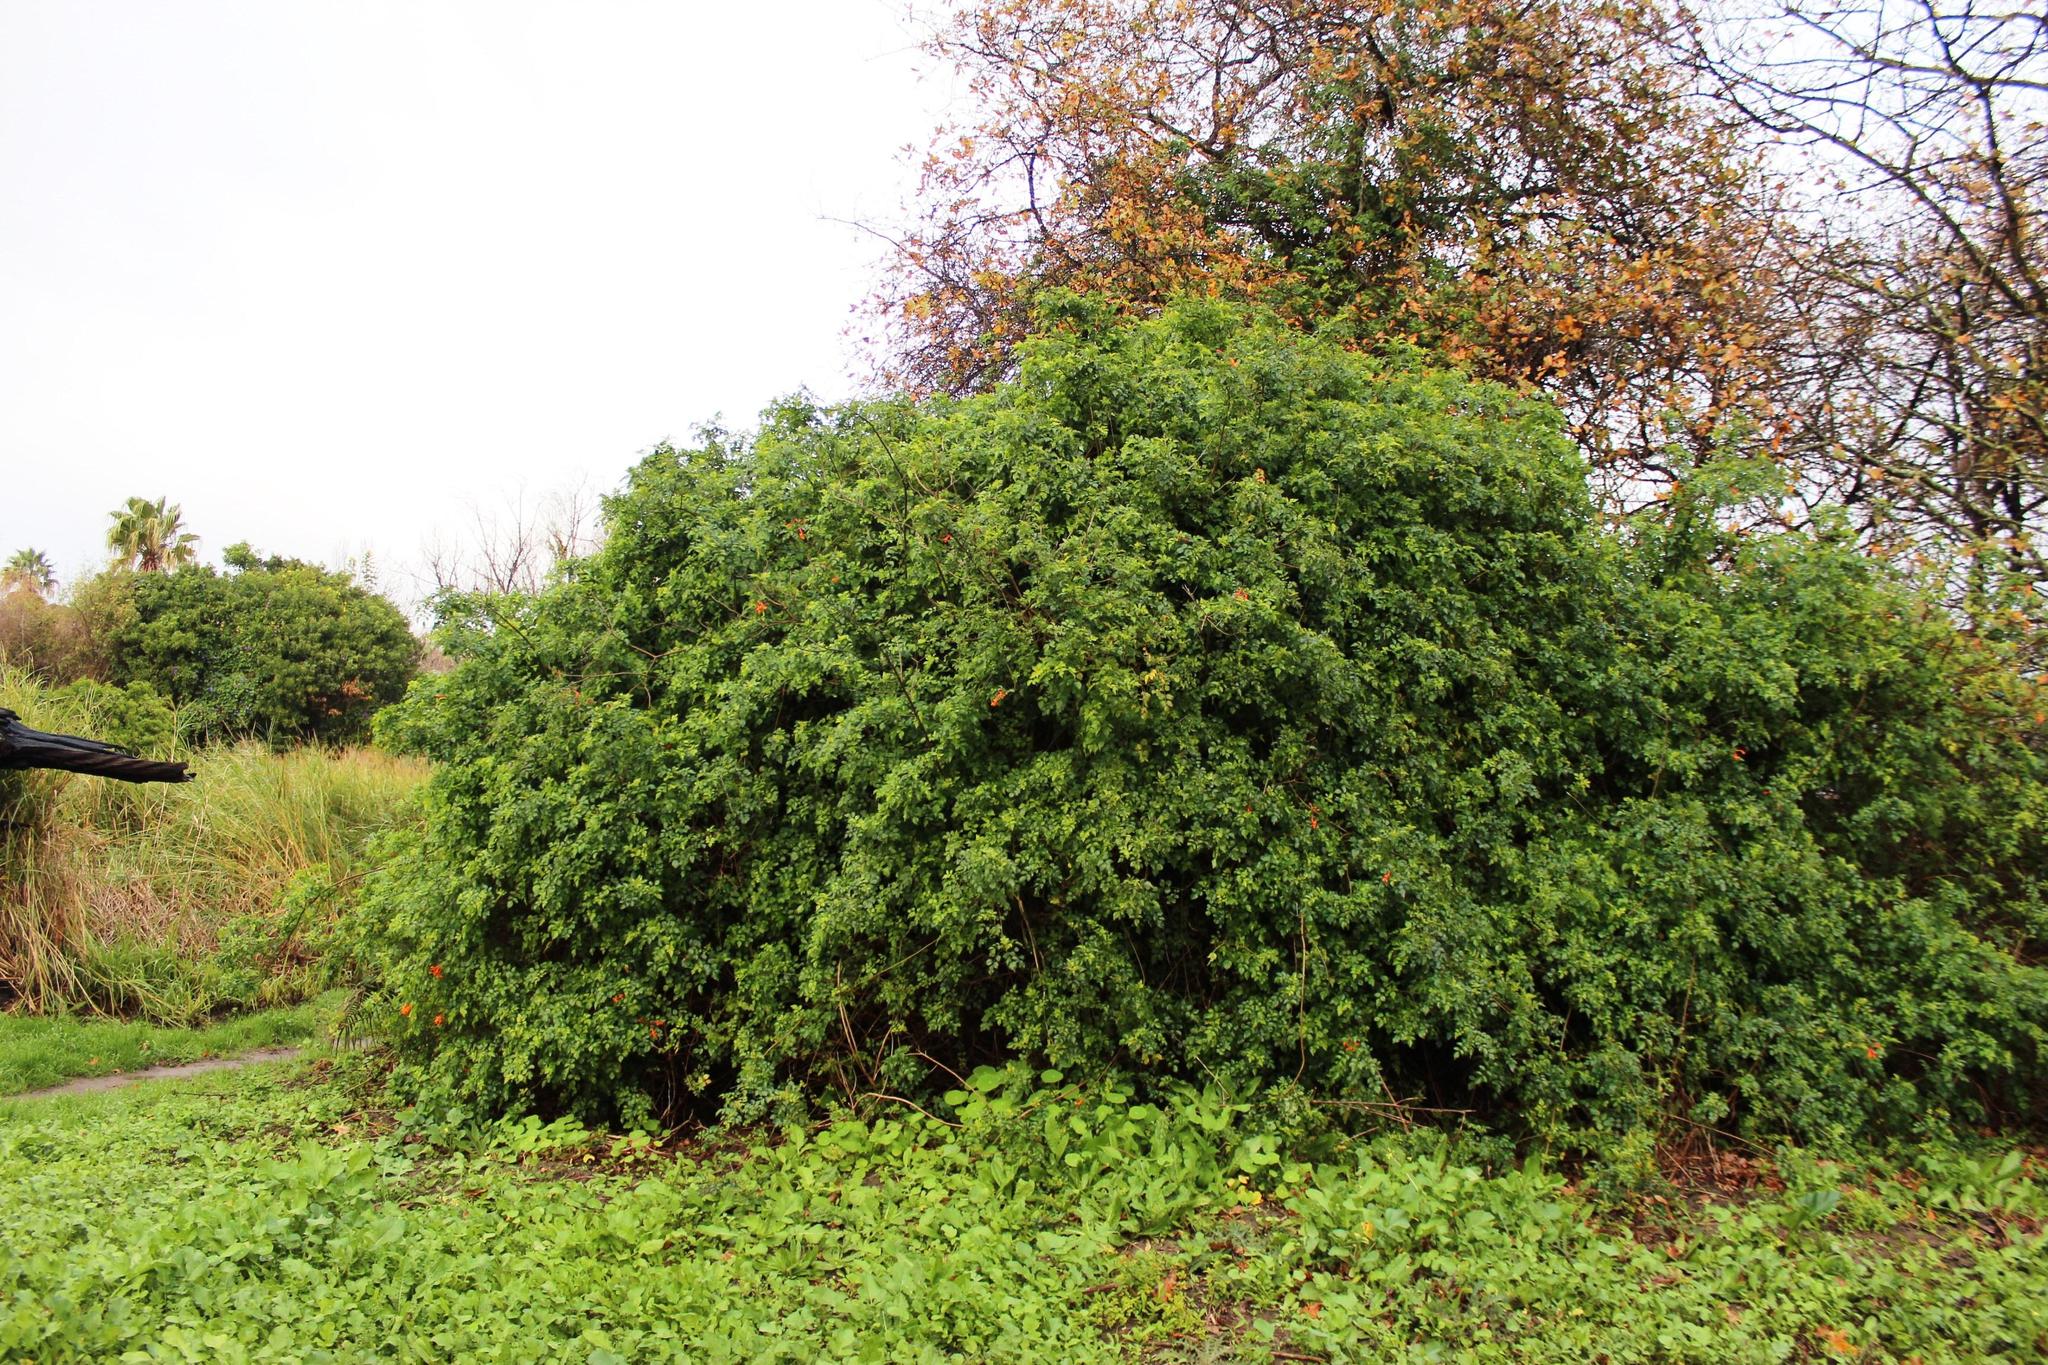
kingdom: Plantae
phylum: Tracheophyta
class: Magnoliopsida
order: Lamiales
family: Bignoniaceae
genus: Tecomaria
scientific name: Tecomaria capensis
